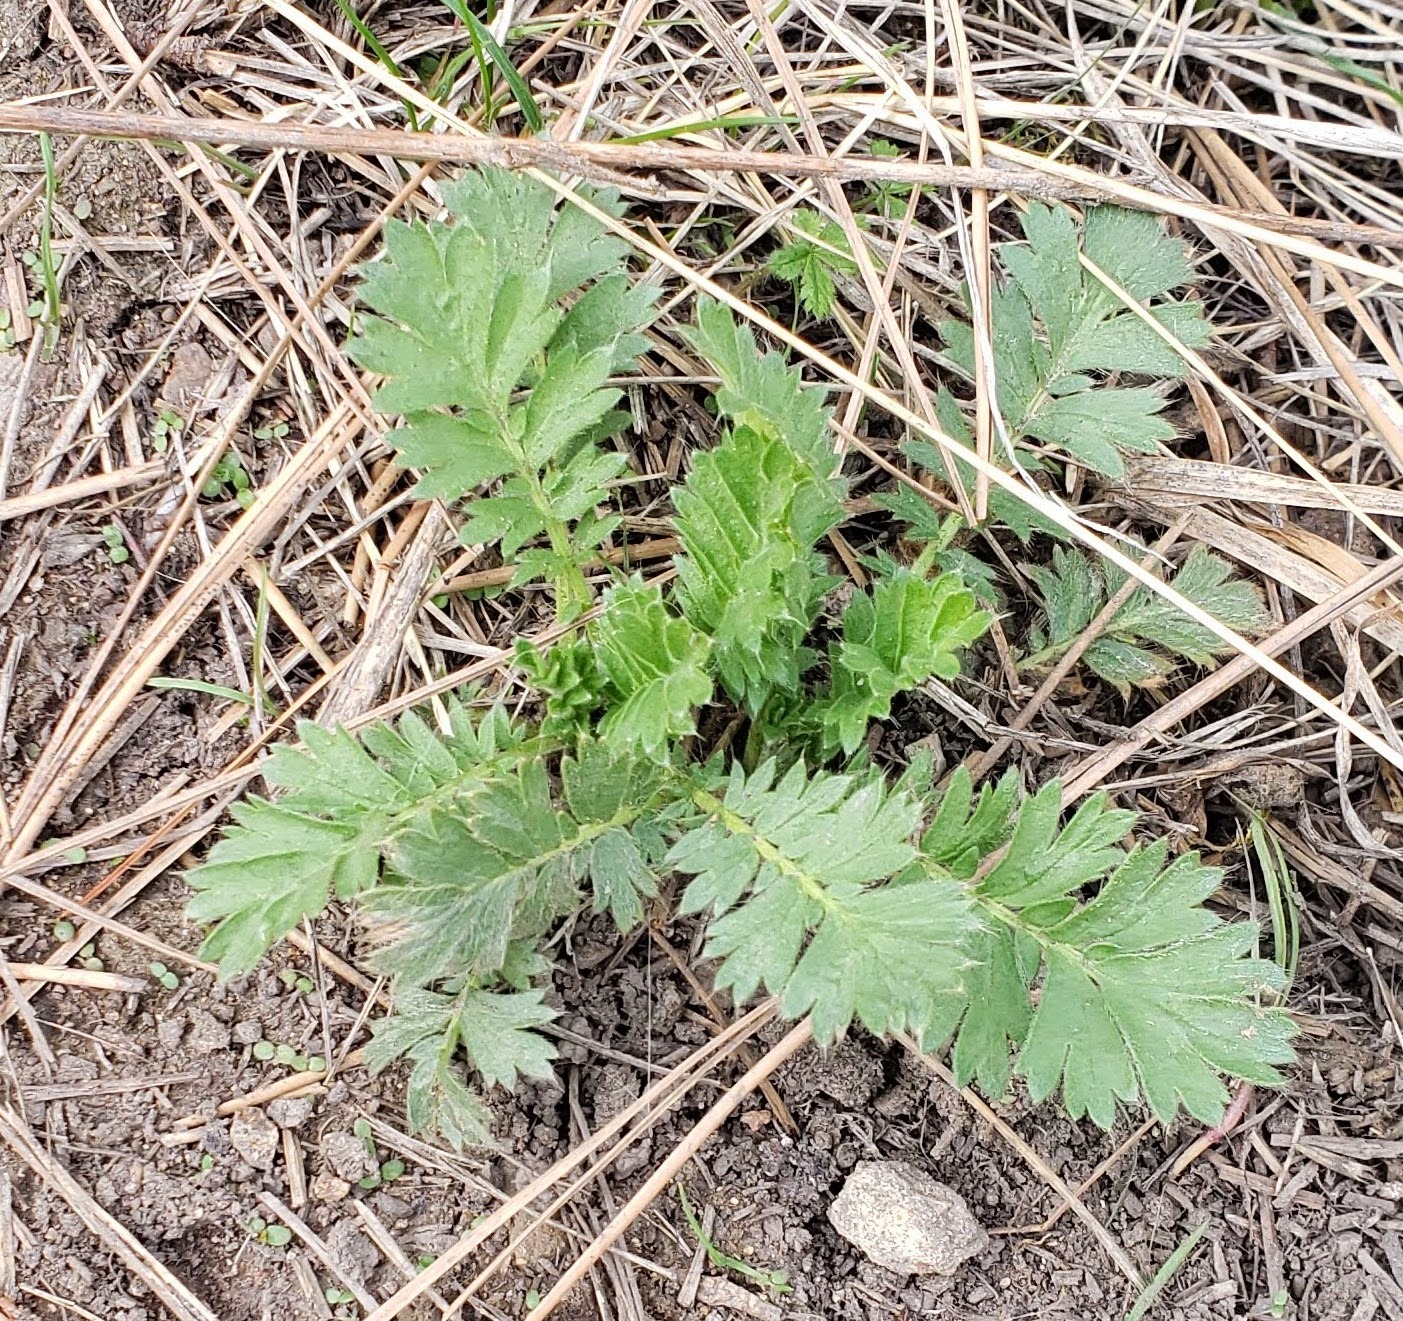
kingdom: Plantae
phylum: Tracheophyta
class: Magnoliopsida
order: Rosales
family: Rosaceae
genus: Geum
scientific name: Geum triflorum
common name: Old man's whiskers
